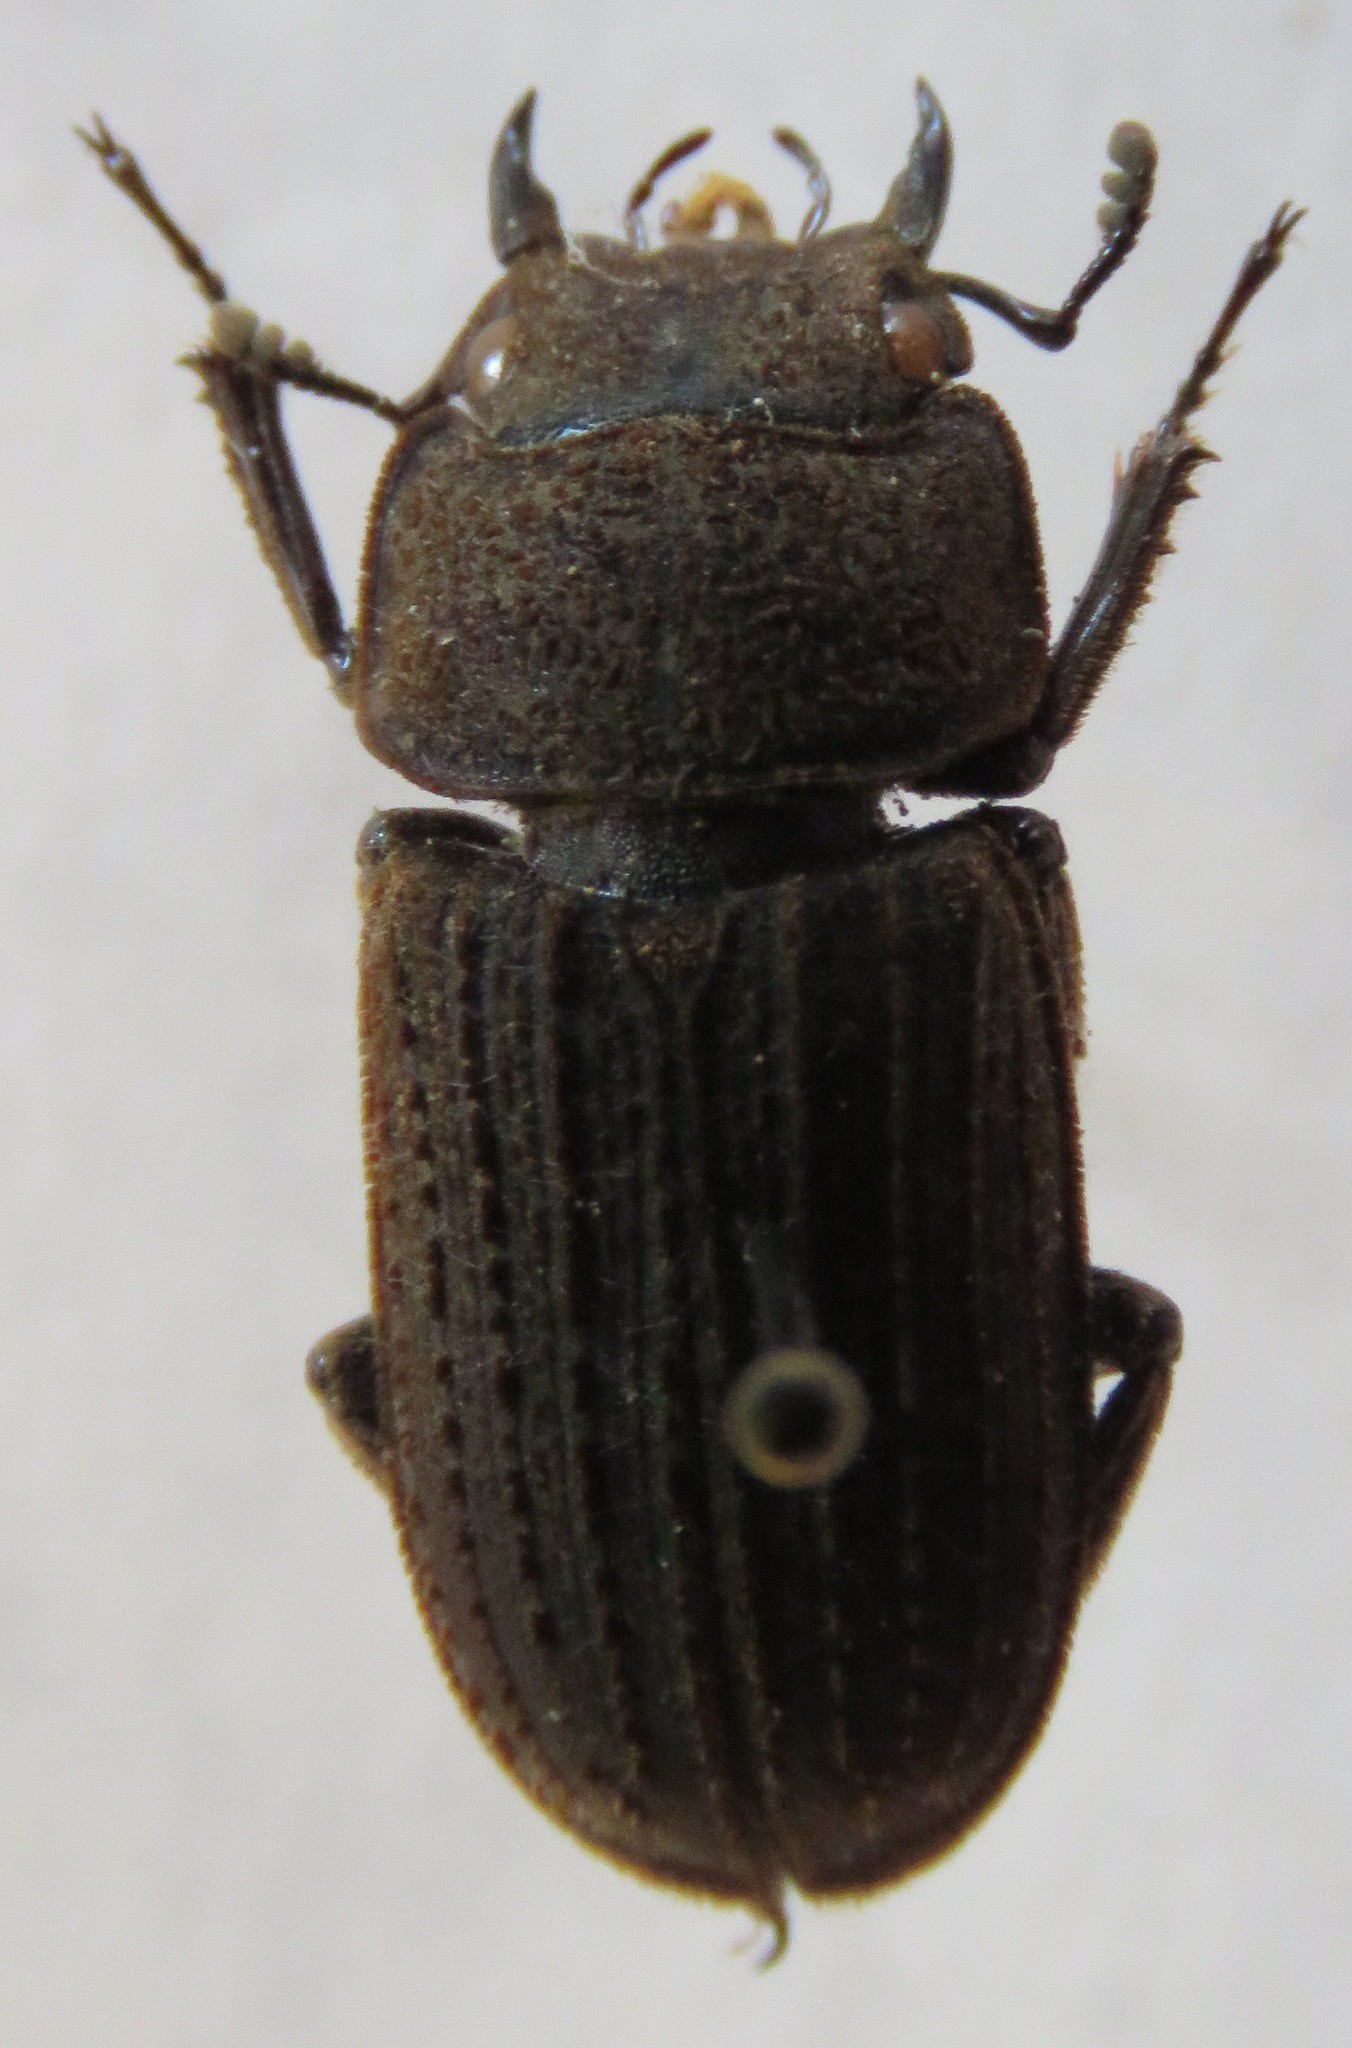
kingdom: Animalia
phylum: Arthropoda
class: Insecta
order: Coleoptera
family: Lucanidae
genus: Dorcus
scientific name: Dorcus
